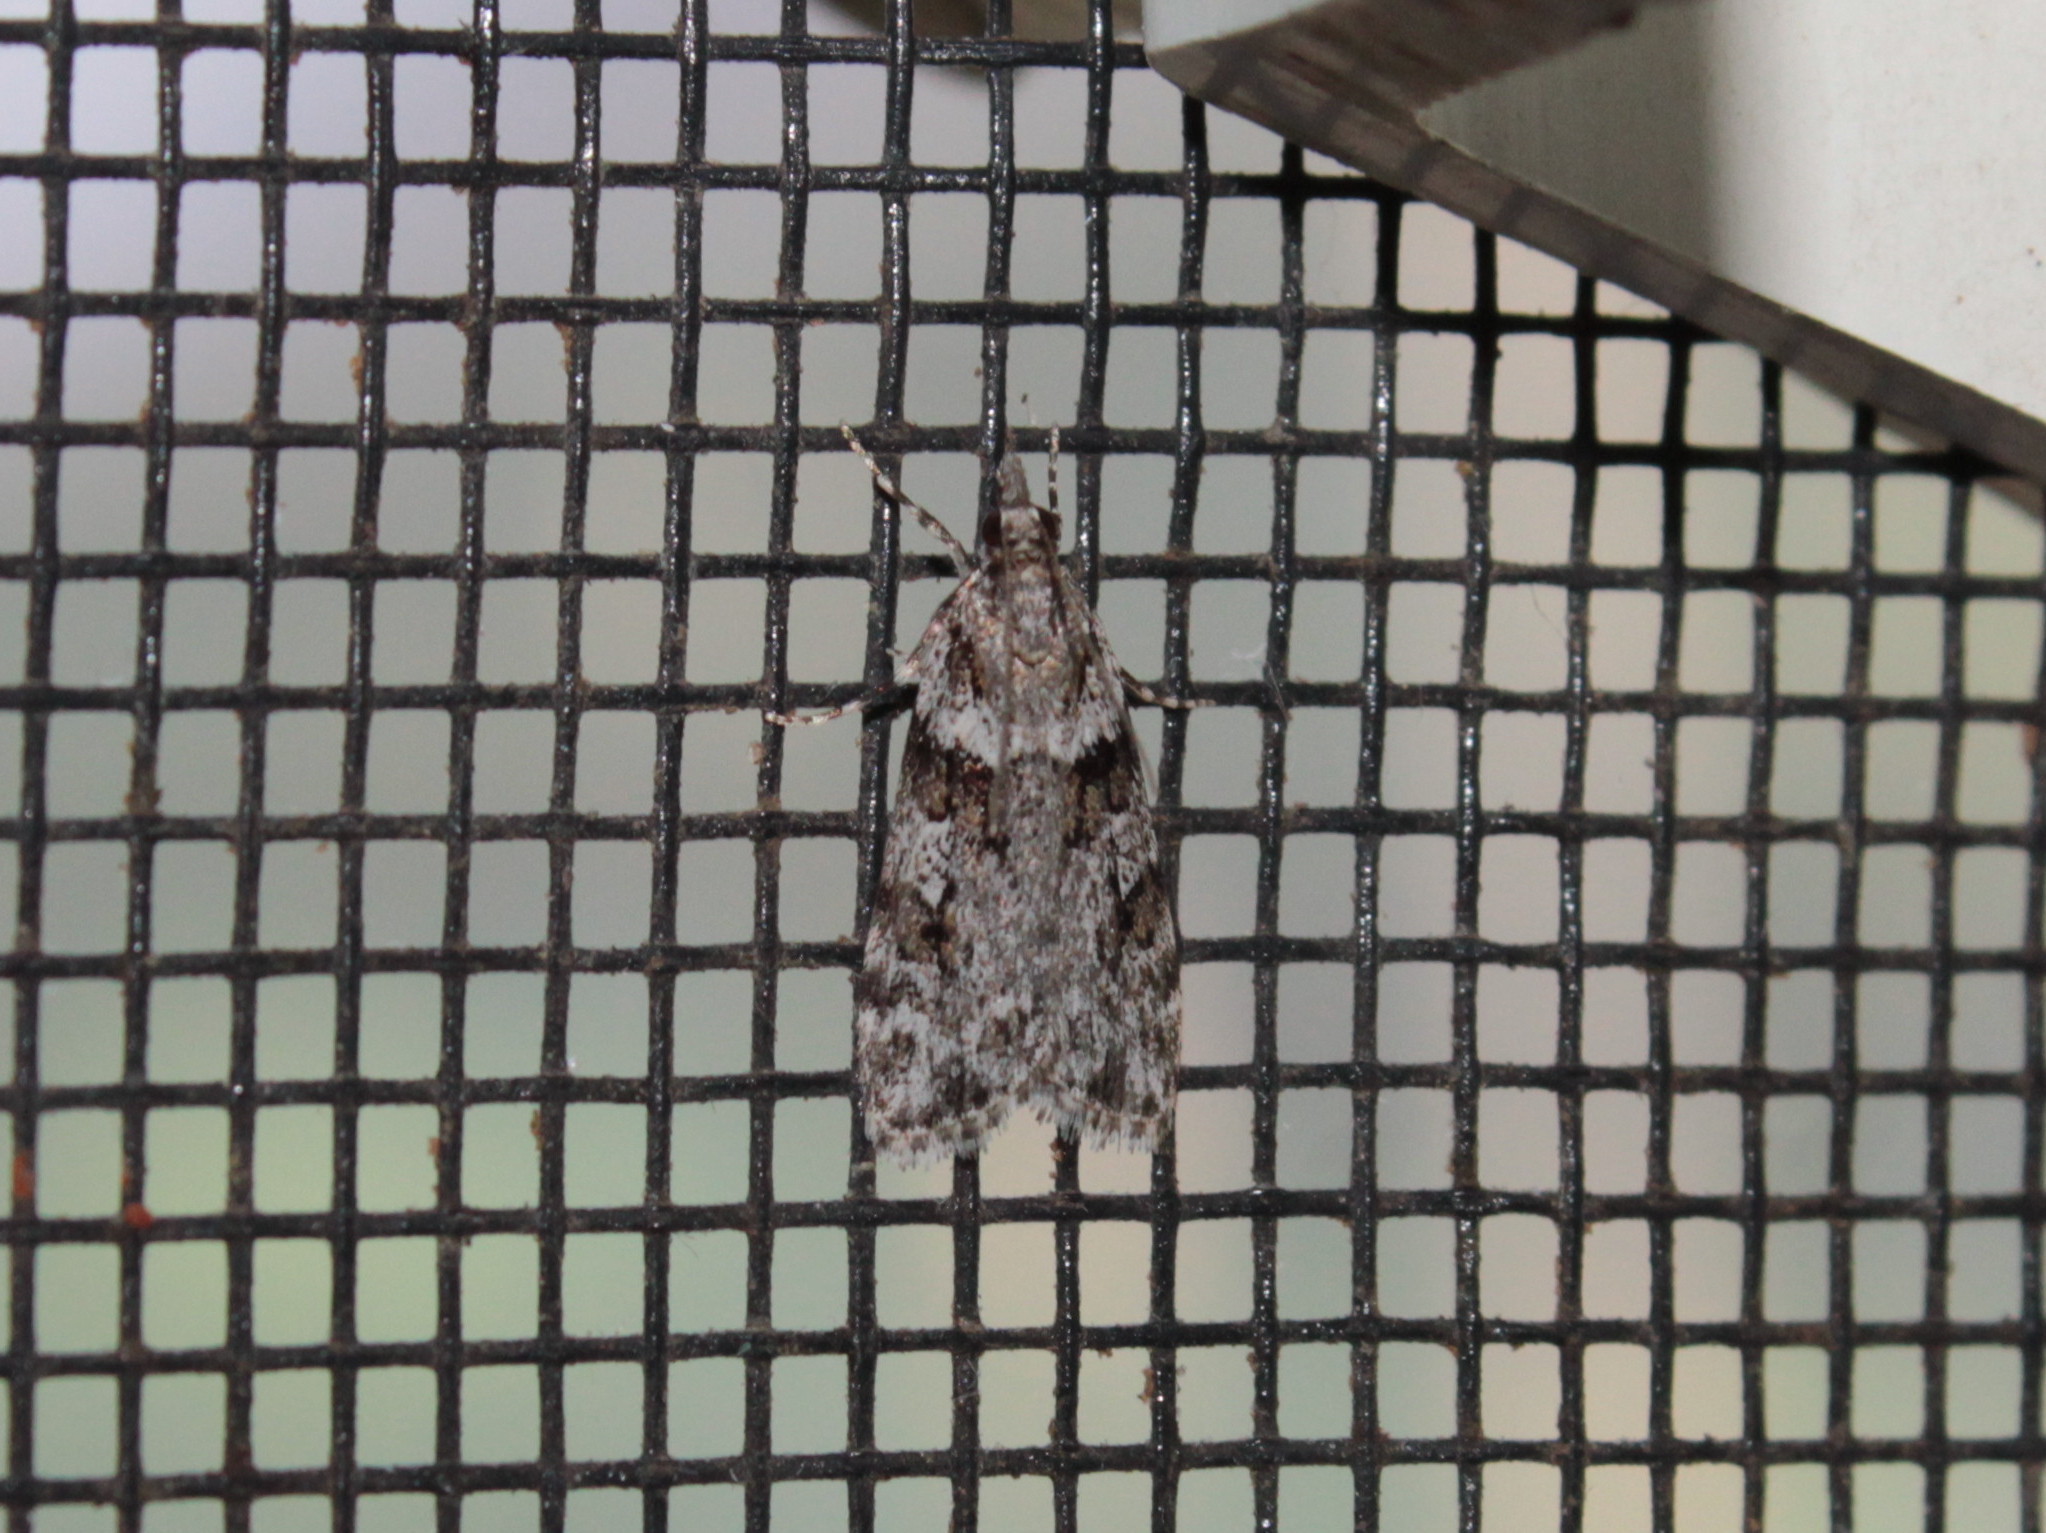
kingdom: Animalia
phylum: Arthropoda
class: Insecta
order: Lepidoptera
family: Crambidae
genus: Scoparia
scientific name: Scoparia biplagialis
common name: Double-striped scoparia moth
